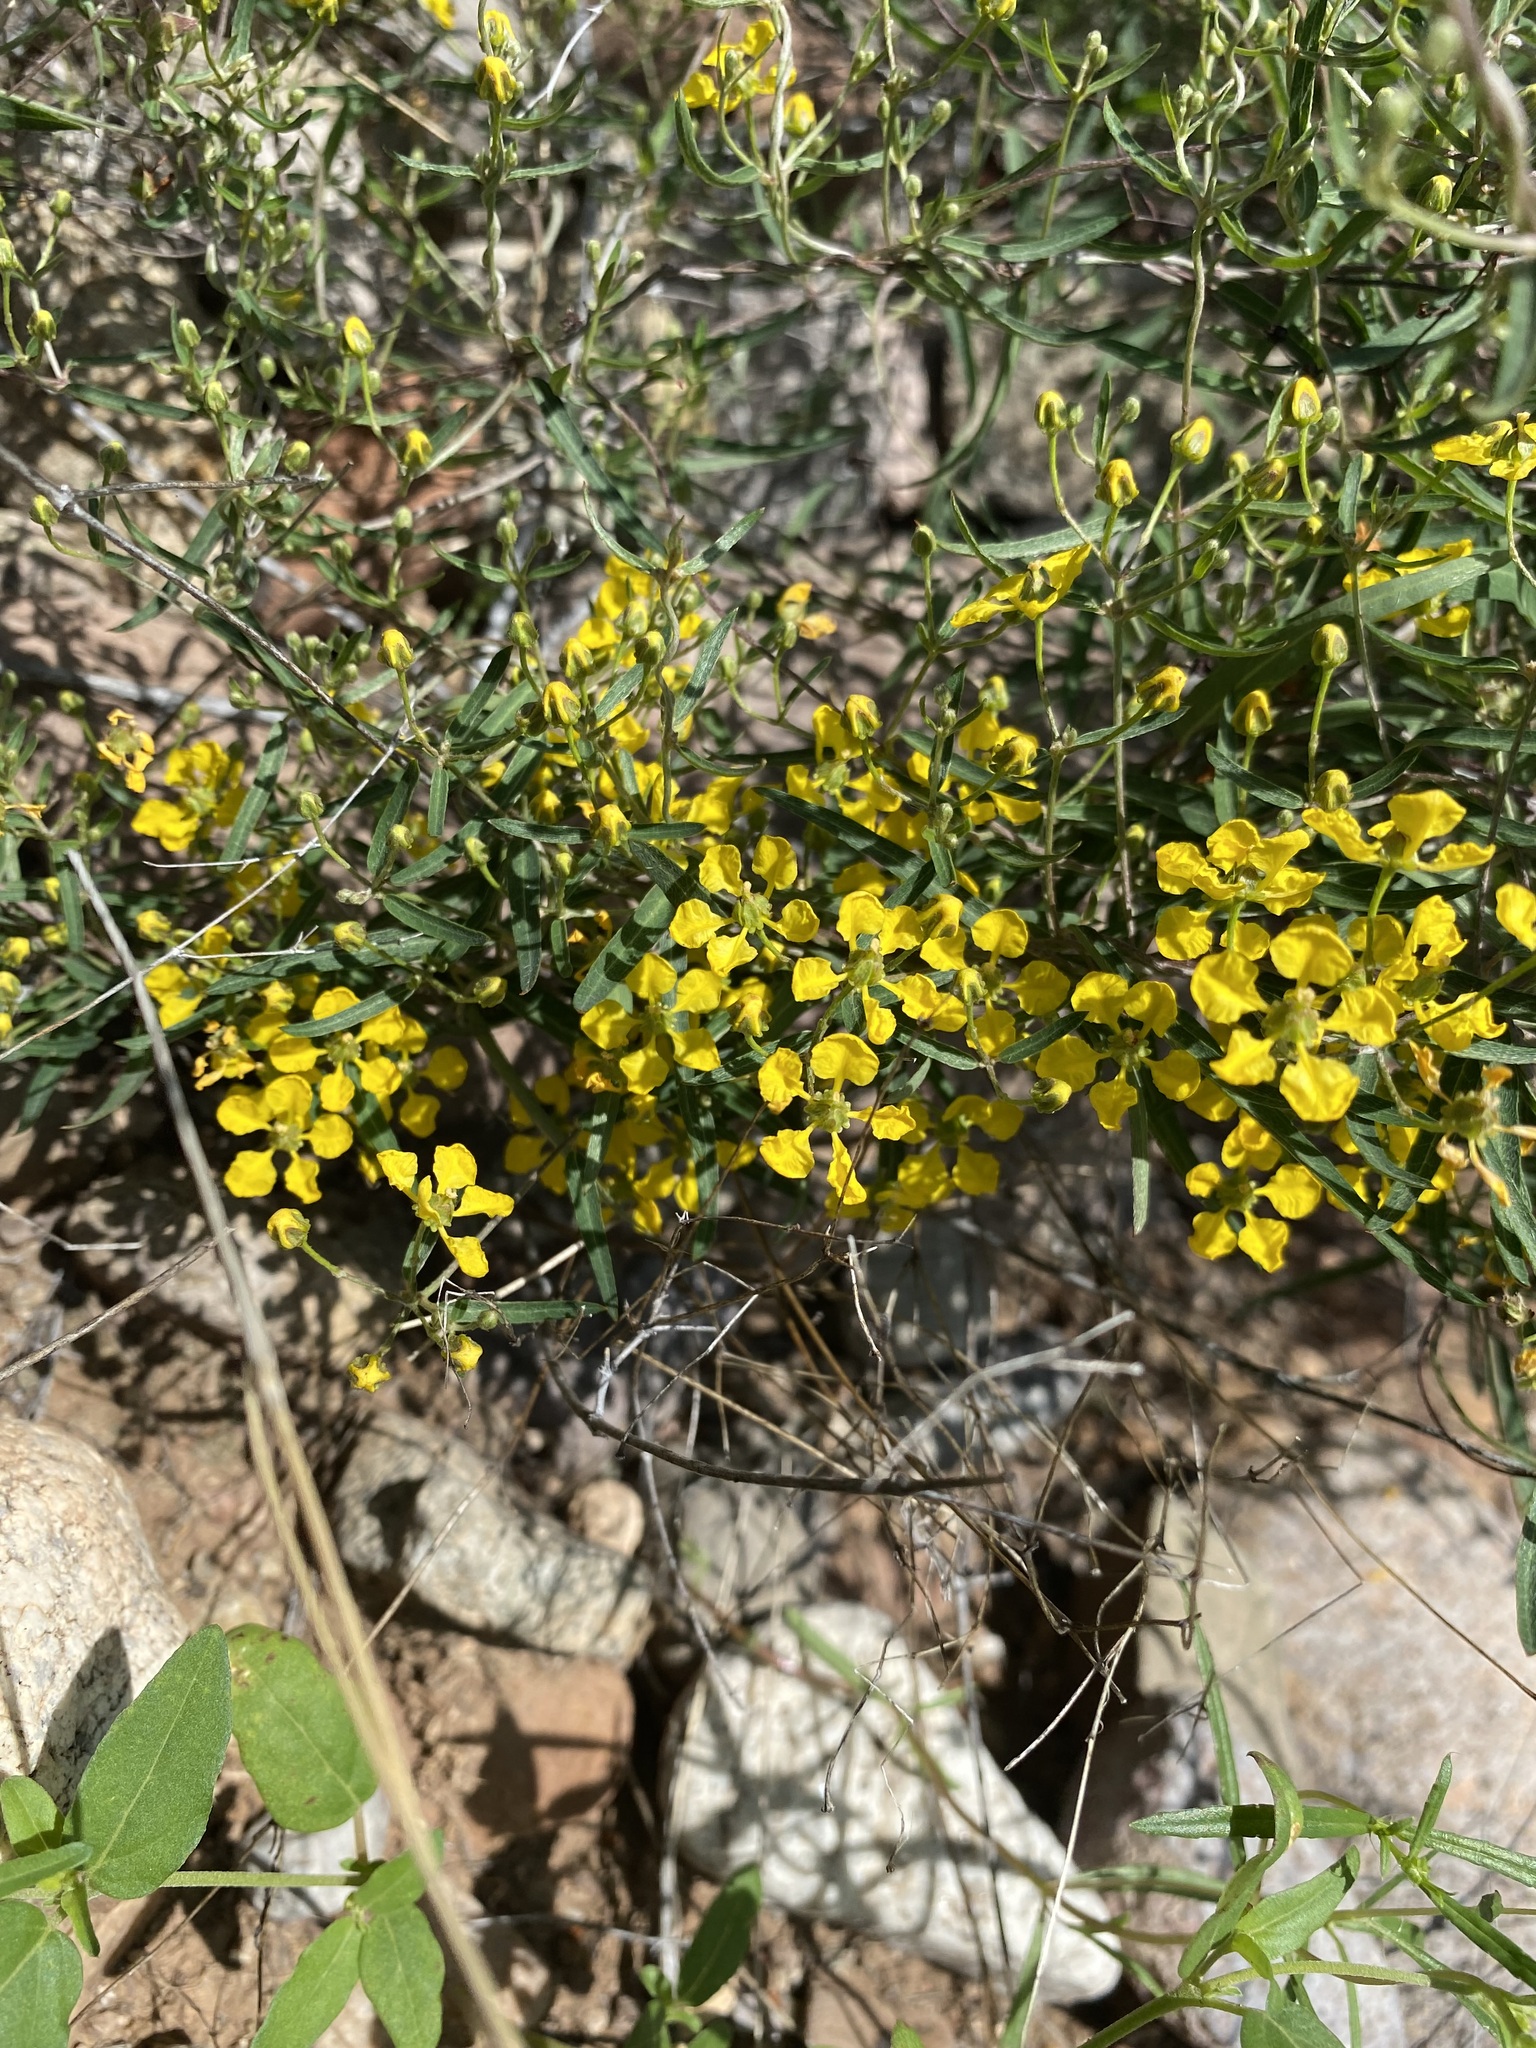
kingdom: Plantae
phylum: Tracheophyta
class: Magnoliopsida
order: Malpighiales
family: Malpighiaceae
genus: Cottsia
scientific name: Cottsia gracilis
